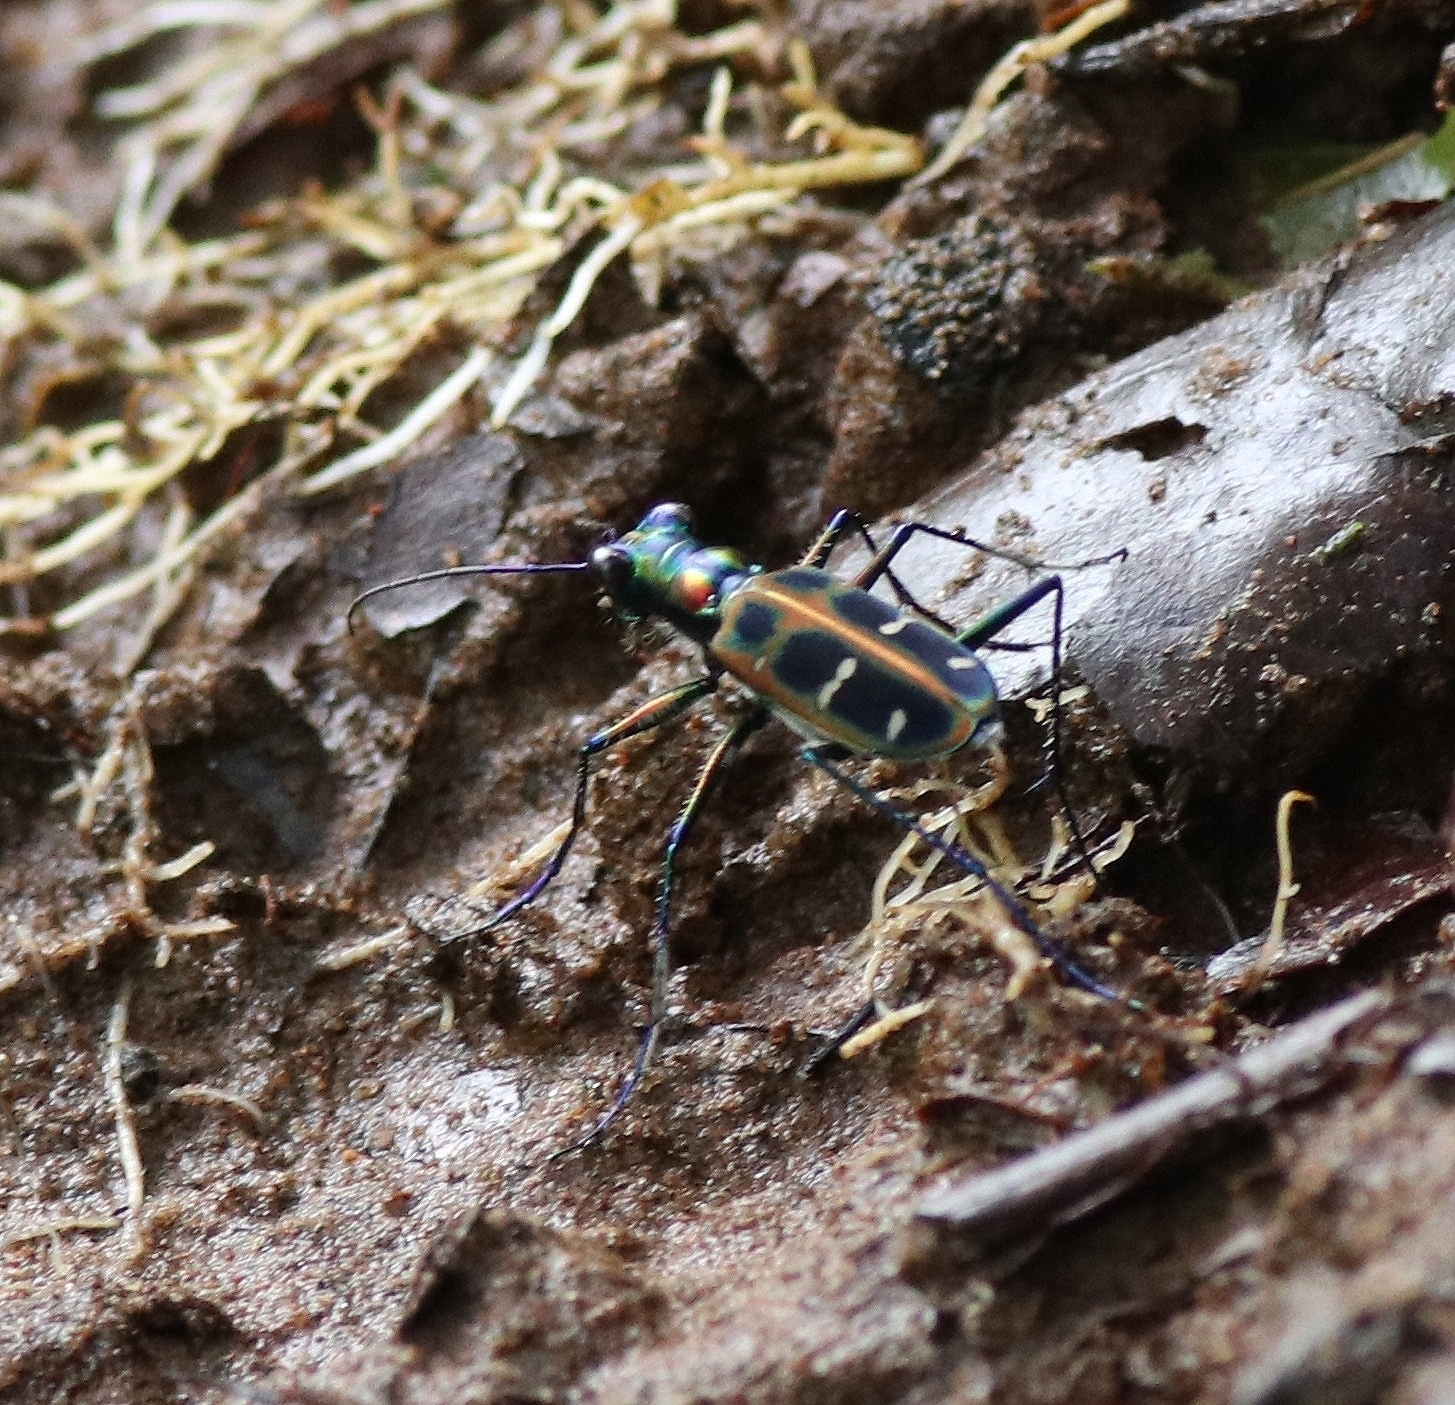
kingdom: Animalia
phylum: Arthropoda
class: Insecta
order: Coleoptera
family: Carabidae
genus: Cicindela
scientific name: Cicindela barmanica
